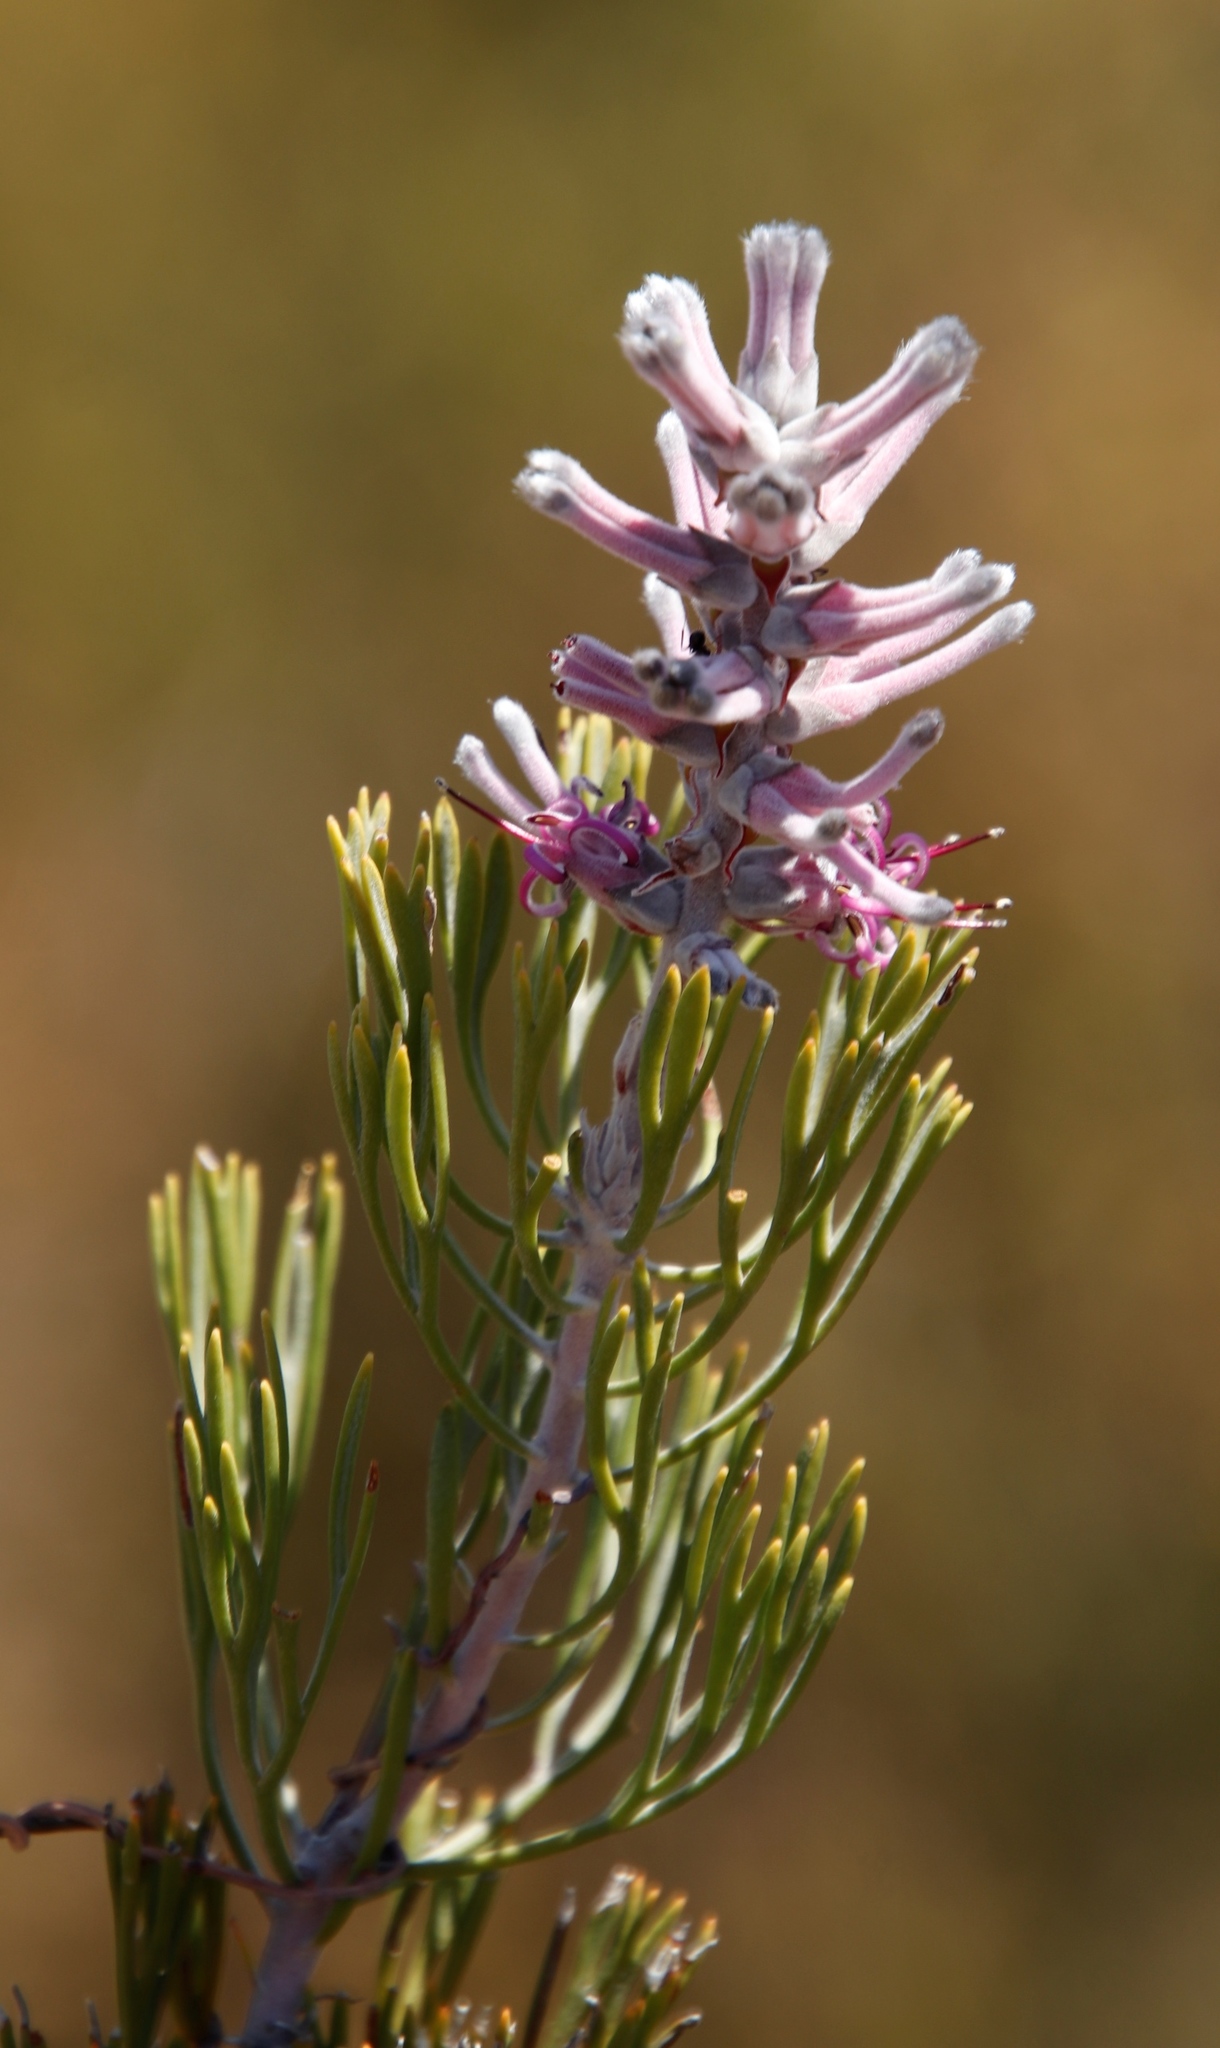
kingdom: Plantae
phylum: Tracheophyta
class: Magnoliopsida
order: Proteales
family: Proteaceae
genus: Paranomus
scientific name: Paranomus bracteolaris
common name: Bokkeveld tree sceptre
